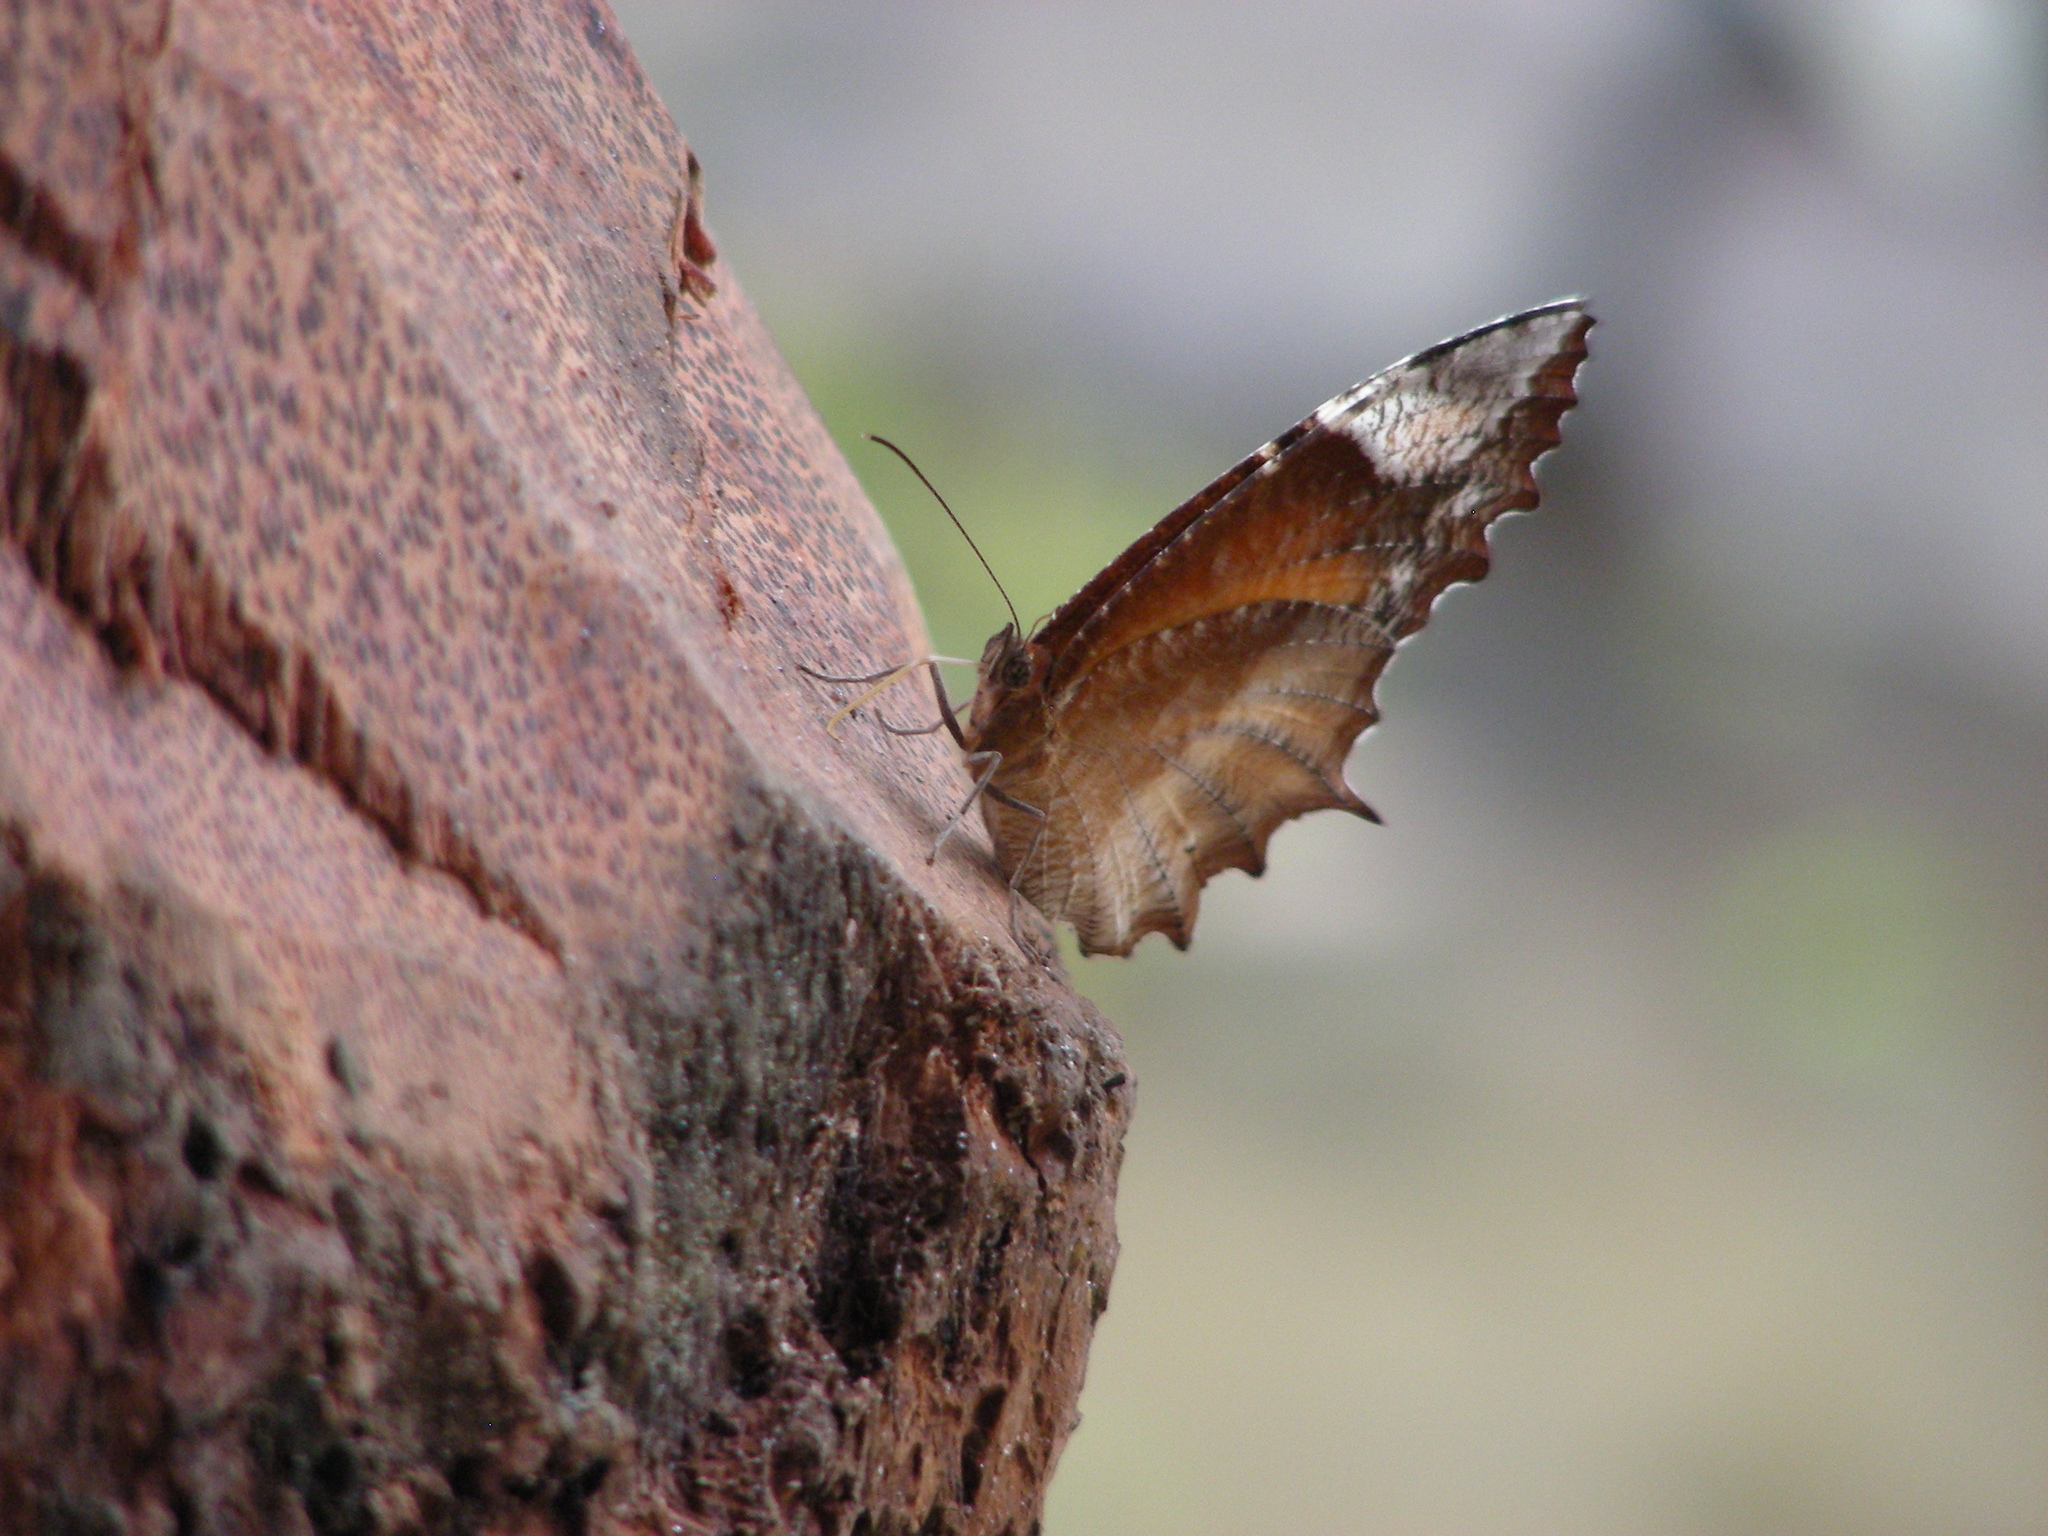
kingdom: Animalia
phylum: Arthropoda
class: Insecta
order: Lepidoptera
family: Nymphalidae
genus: Elymnias
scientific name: Elymnias caudata
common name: Tailed palmfly
